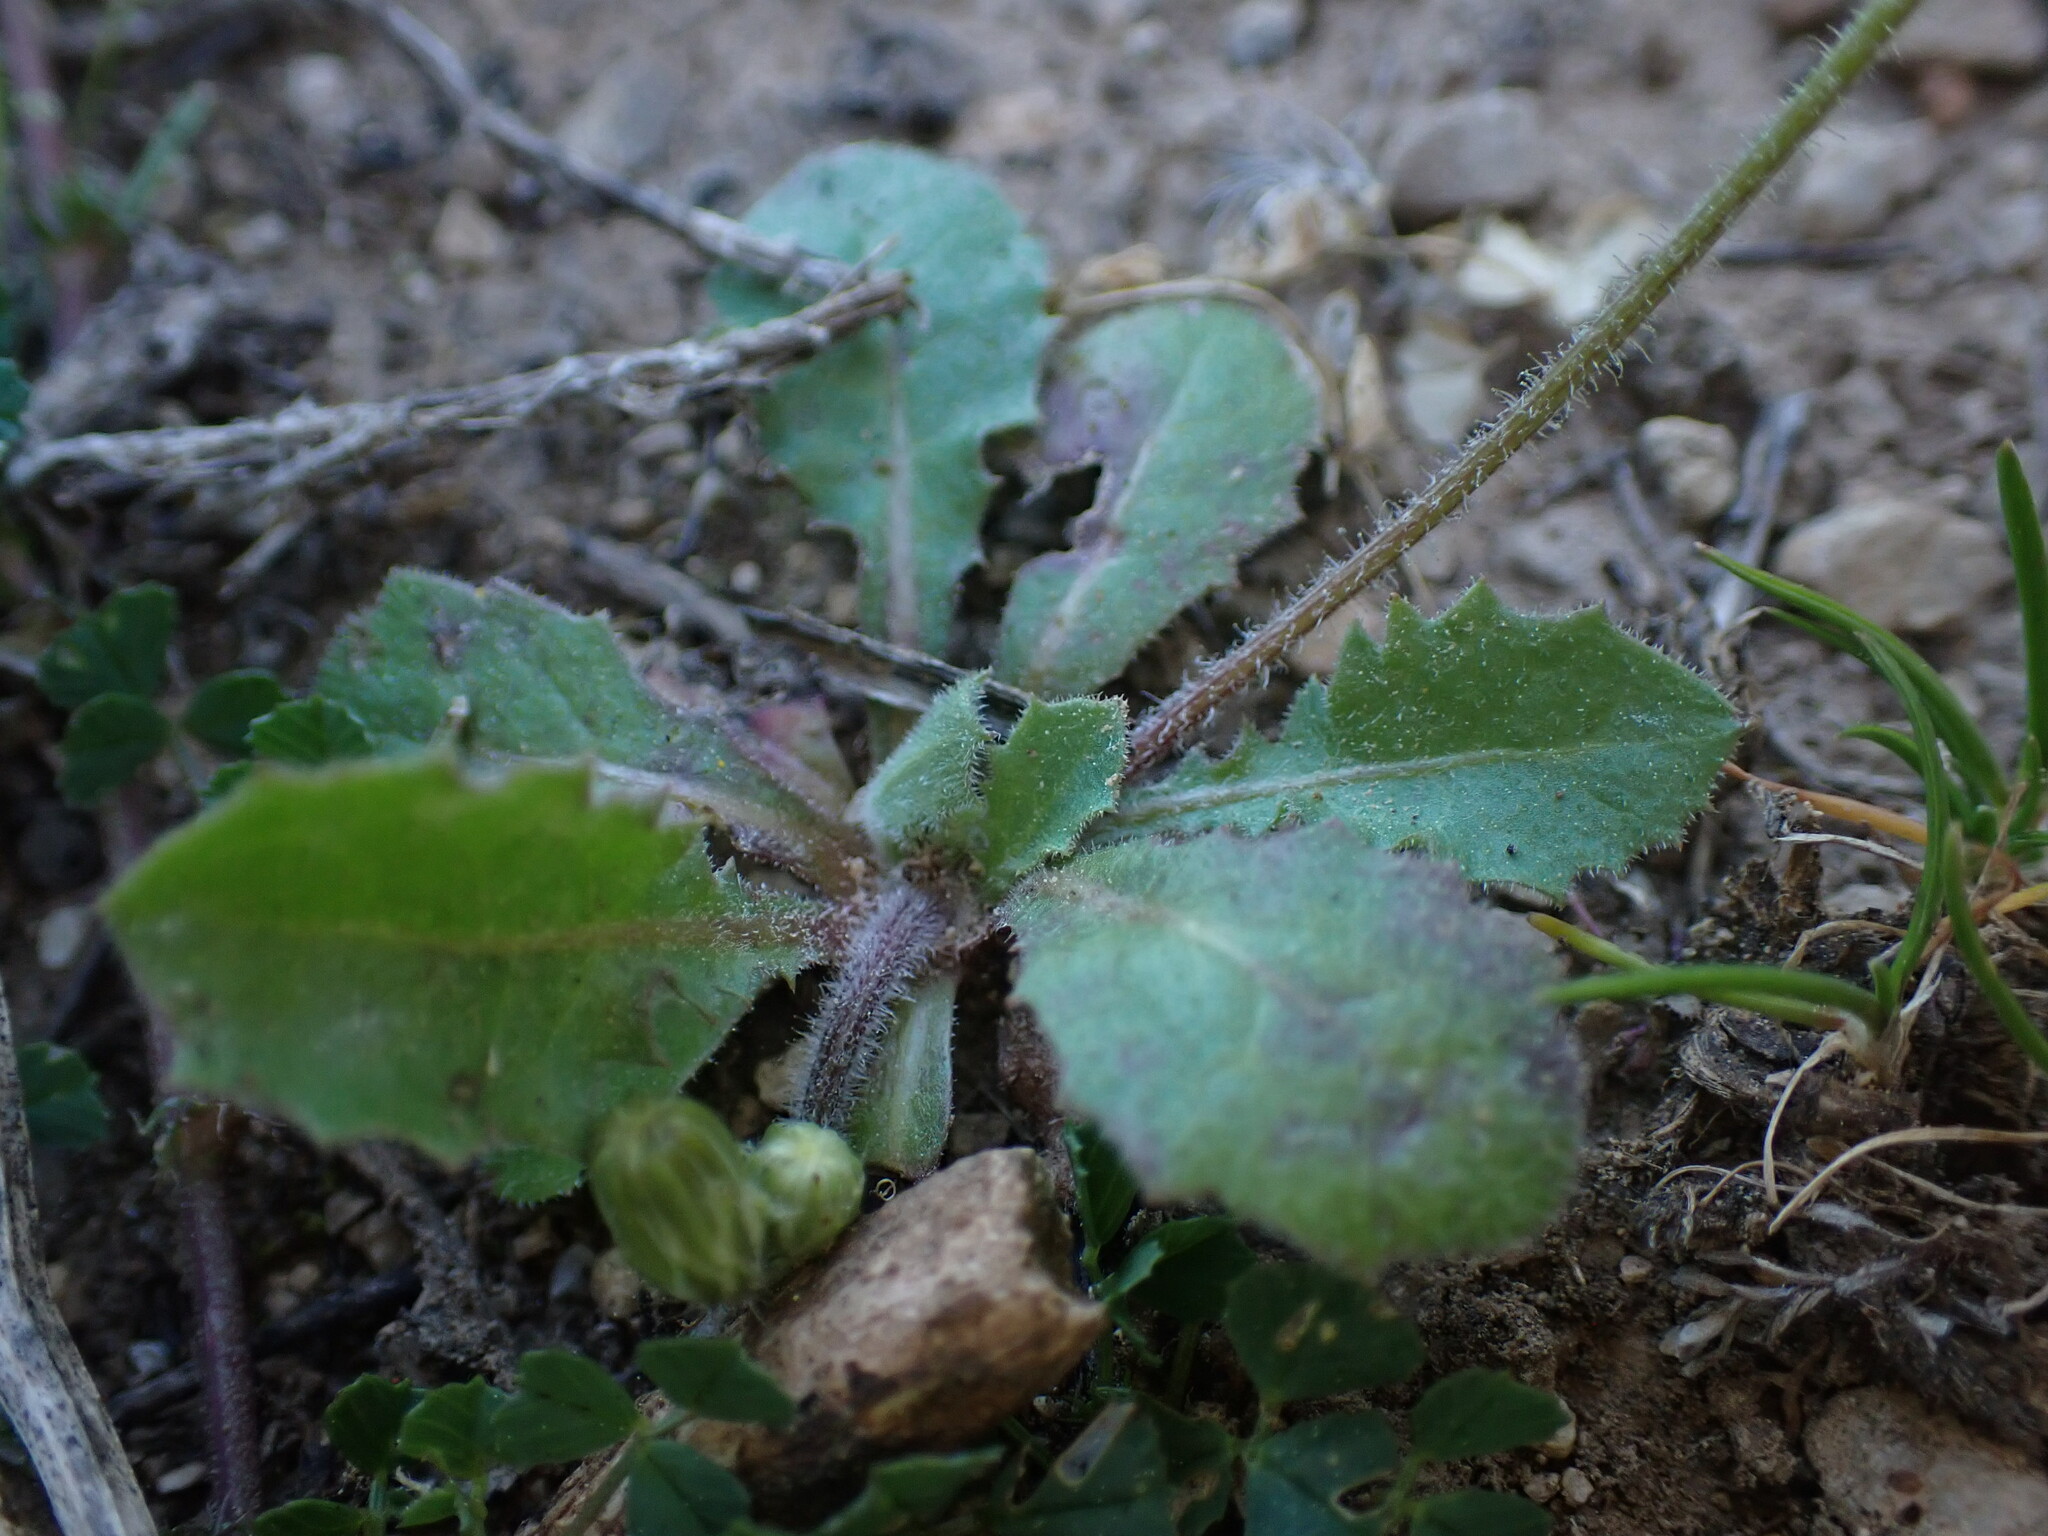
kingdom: Plantae
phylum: Tracheophyta
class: Magnoliopsida
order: Asterales
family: Asteraceae
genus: Crepis
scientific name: Crepis sancta
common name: Hawk's-beard
